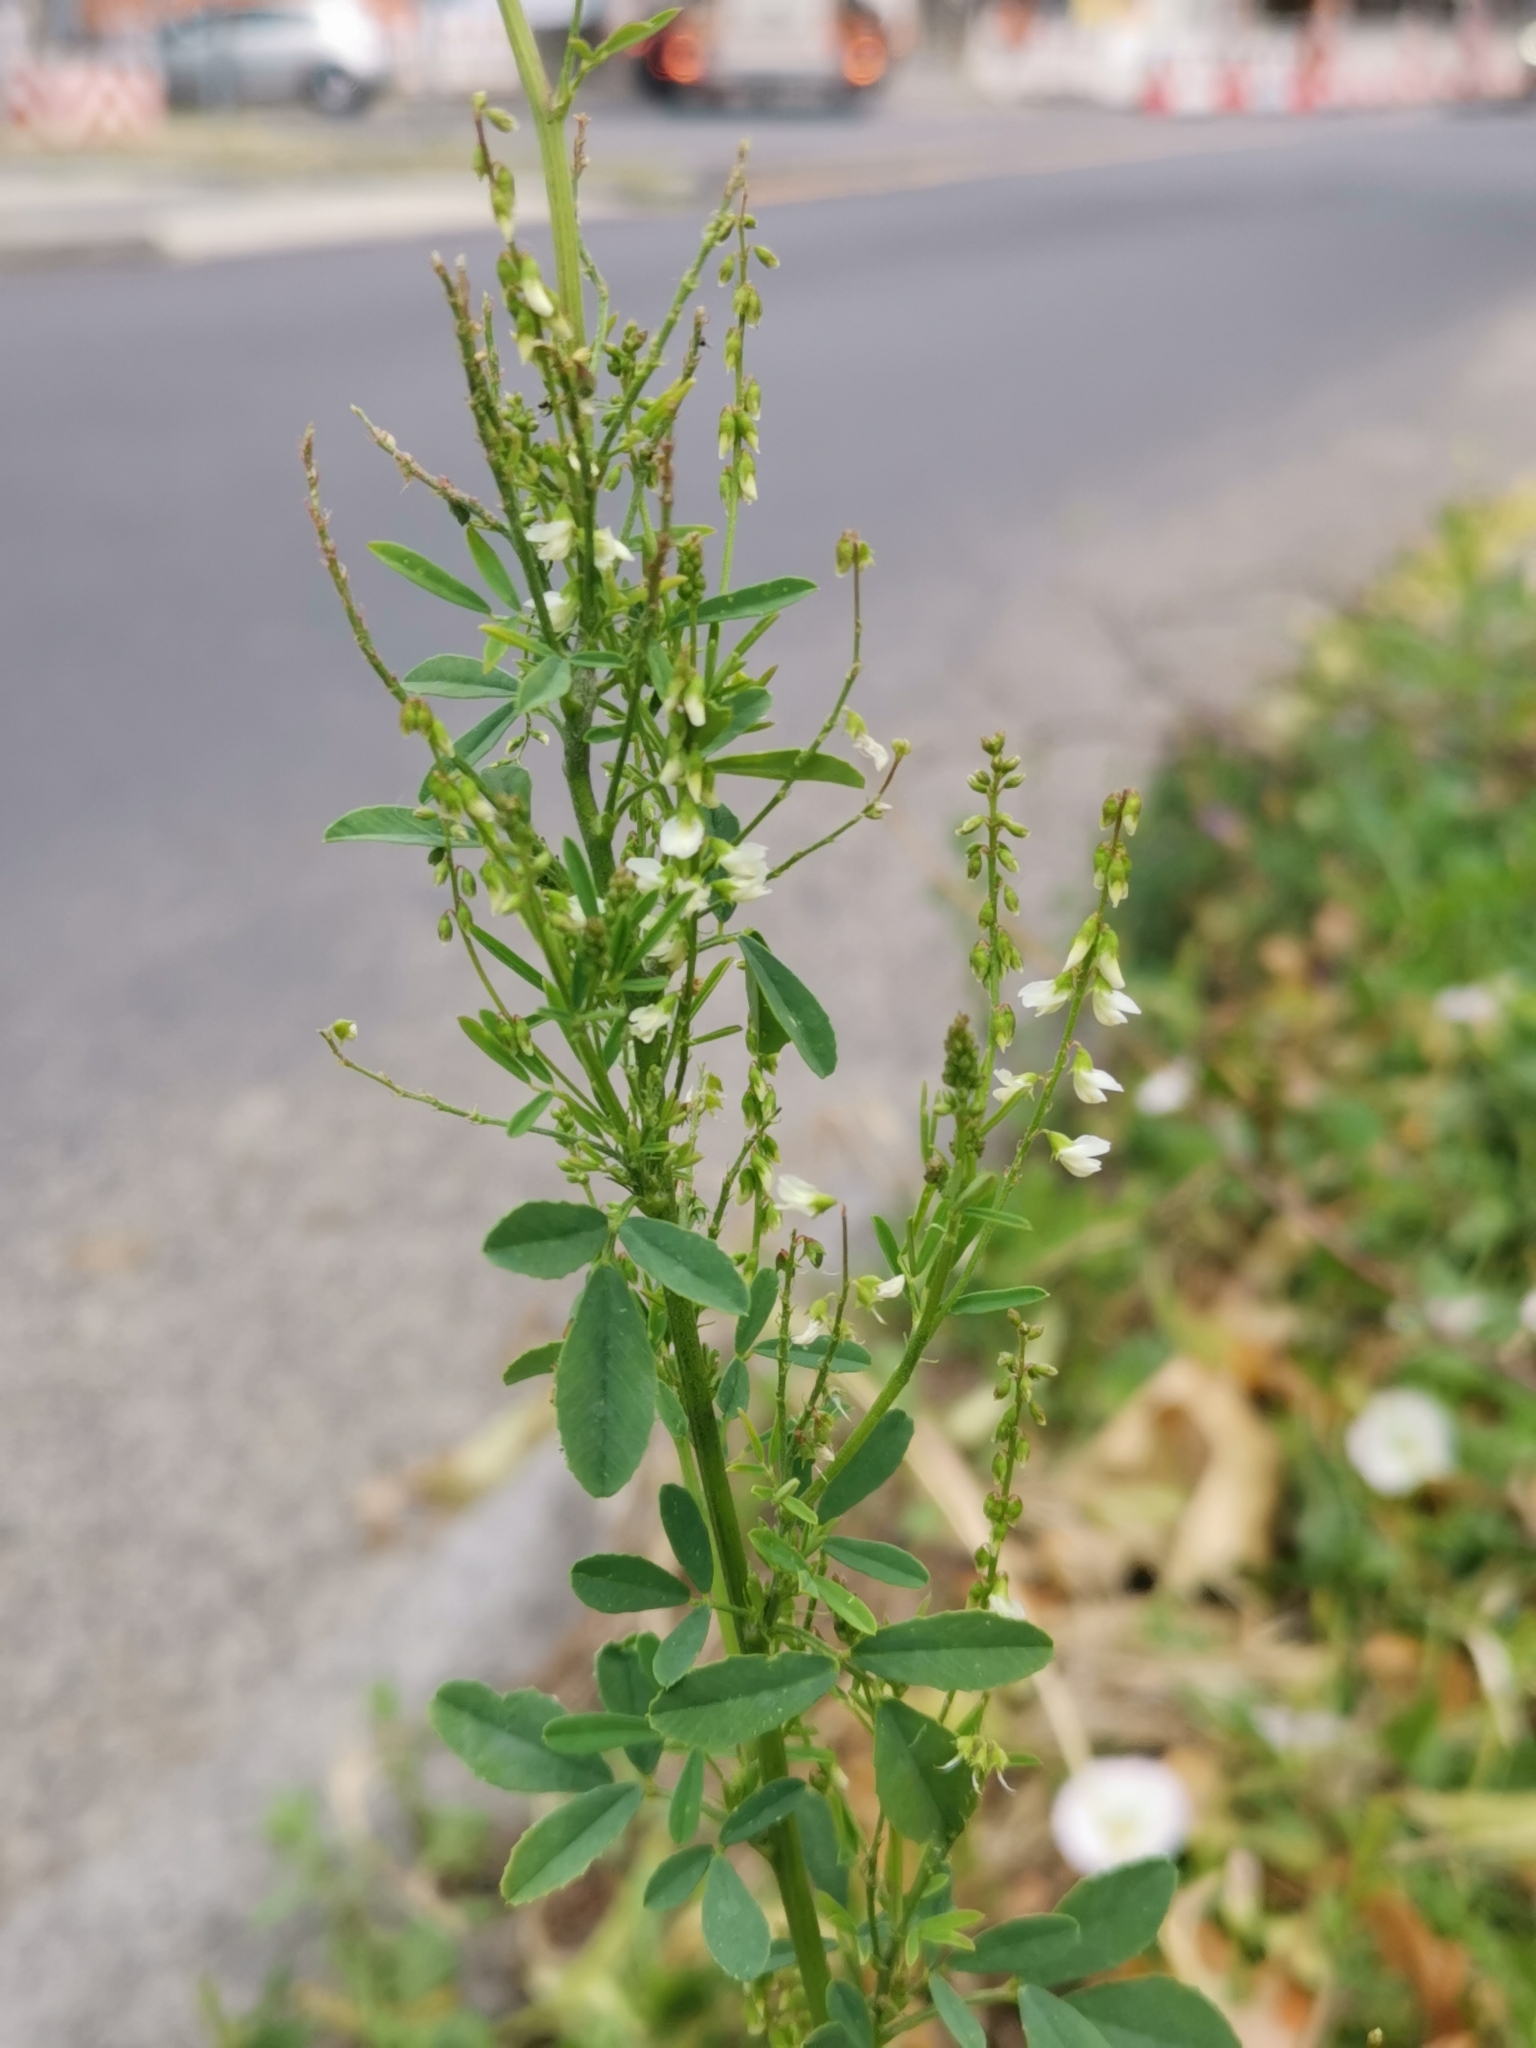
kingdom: Plantae
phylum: Tracheophyta
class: Magnoliopsida
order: Fabales
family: Fabaceae
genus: Melilotus
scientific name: Melilotus albus
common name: White melilot
